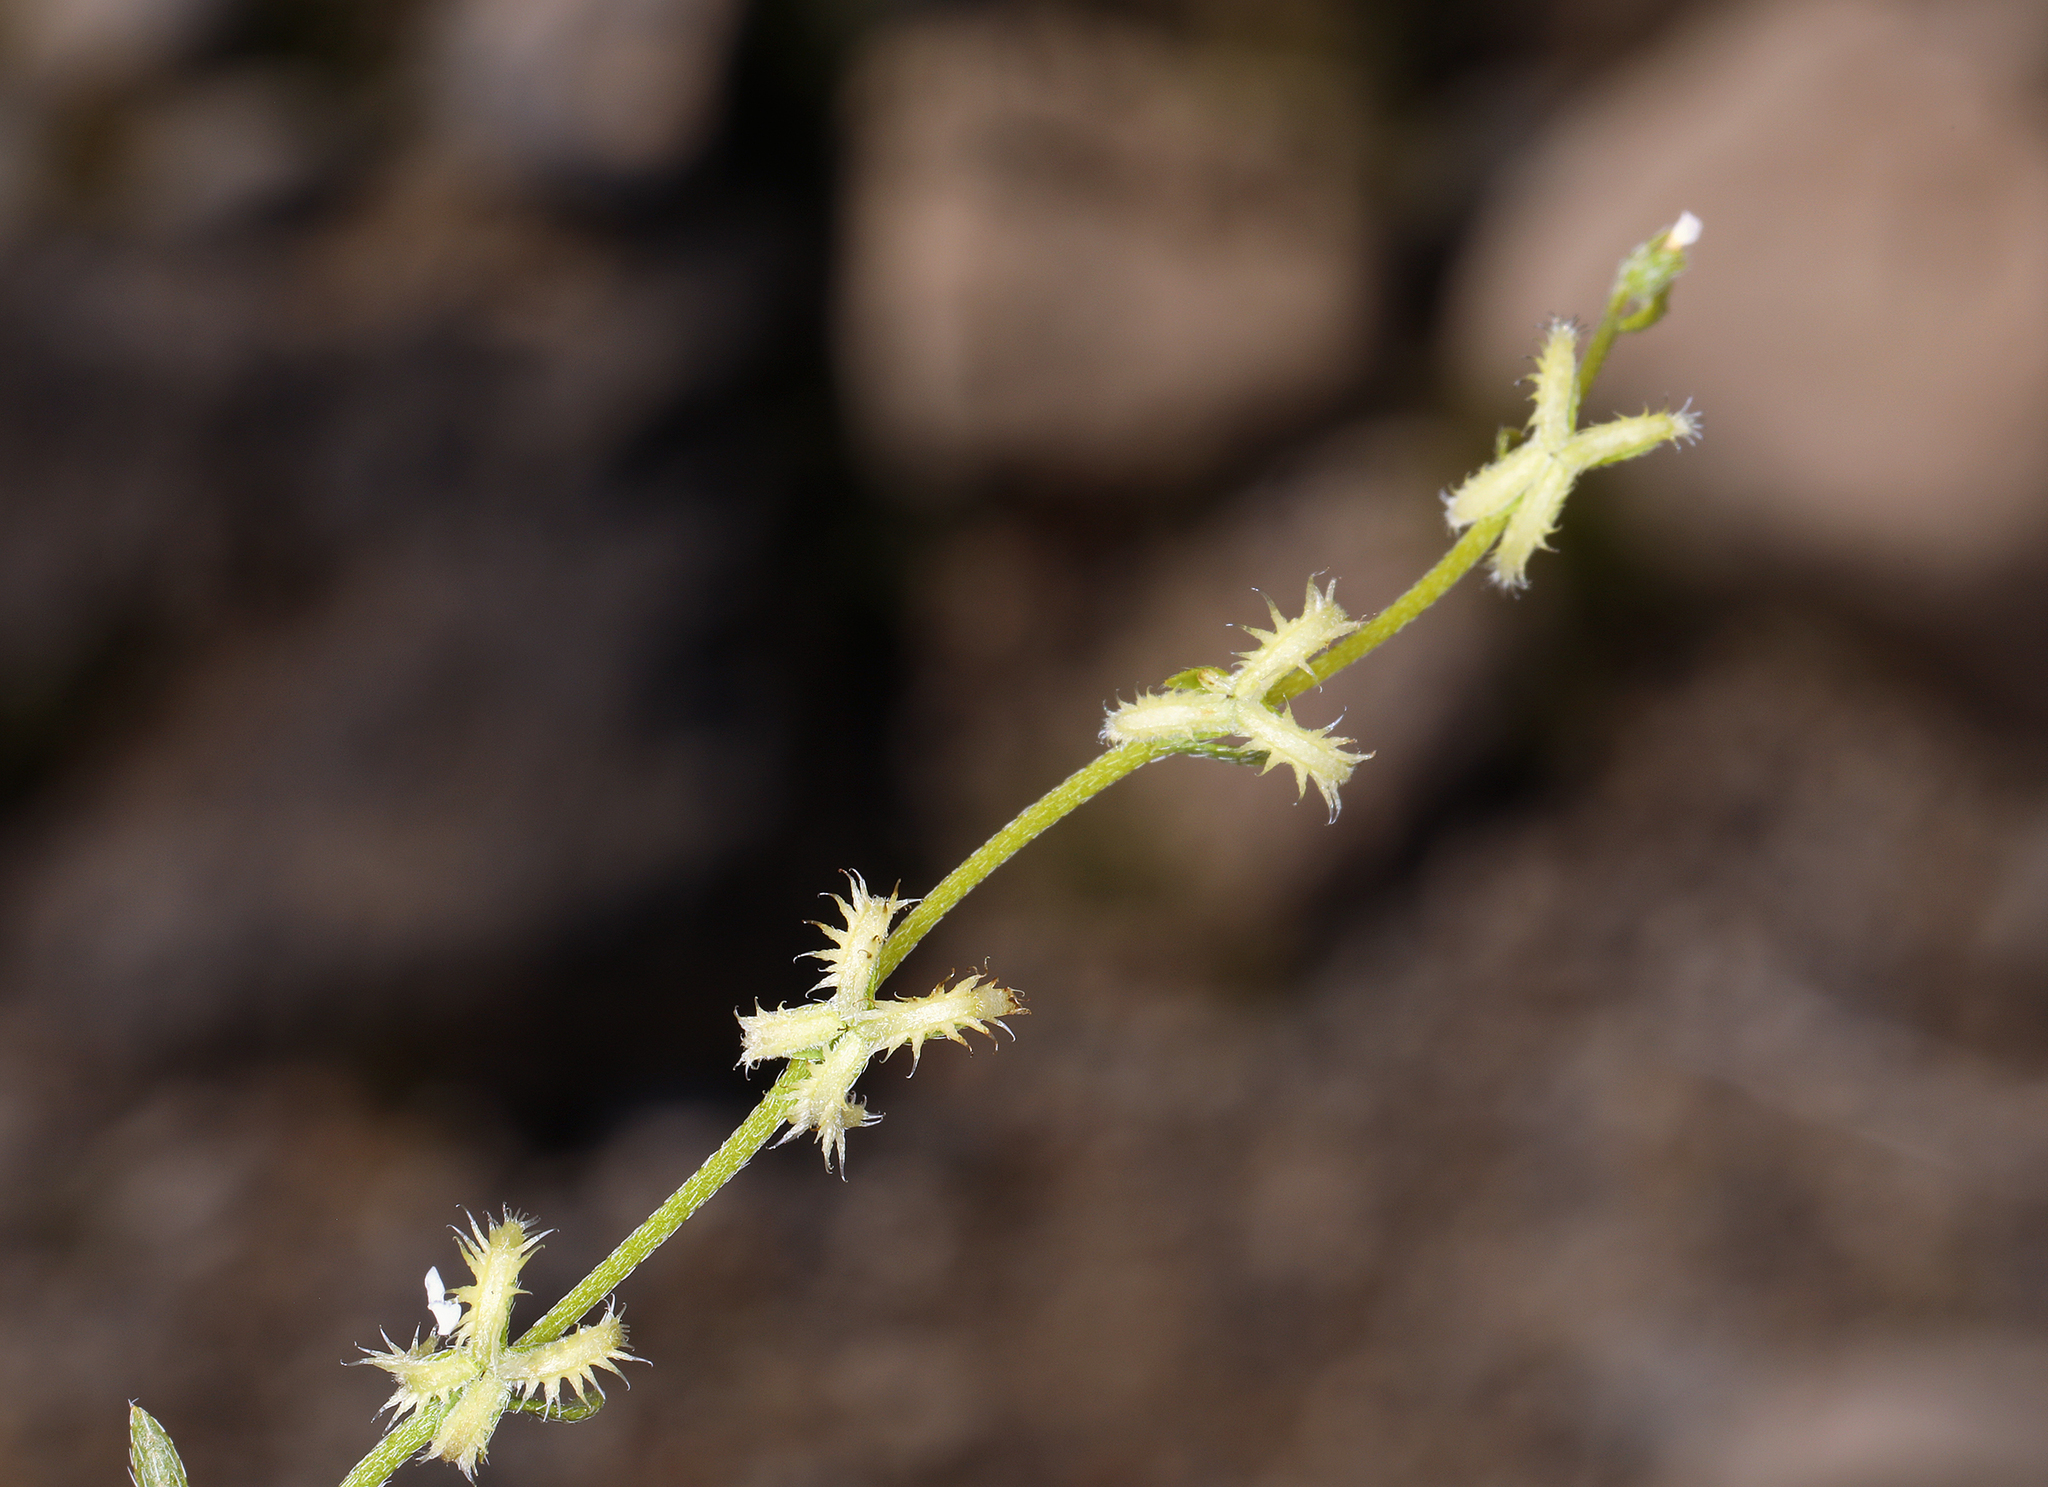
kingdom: Plantae
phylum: Tracheophyta
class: Magnoliopsida
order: Boraginales
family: Boraginaceae
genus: Pectocarya
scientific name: Pectocarya recurvata
